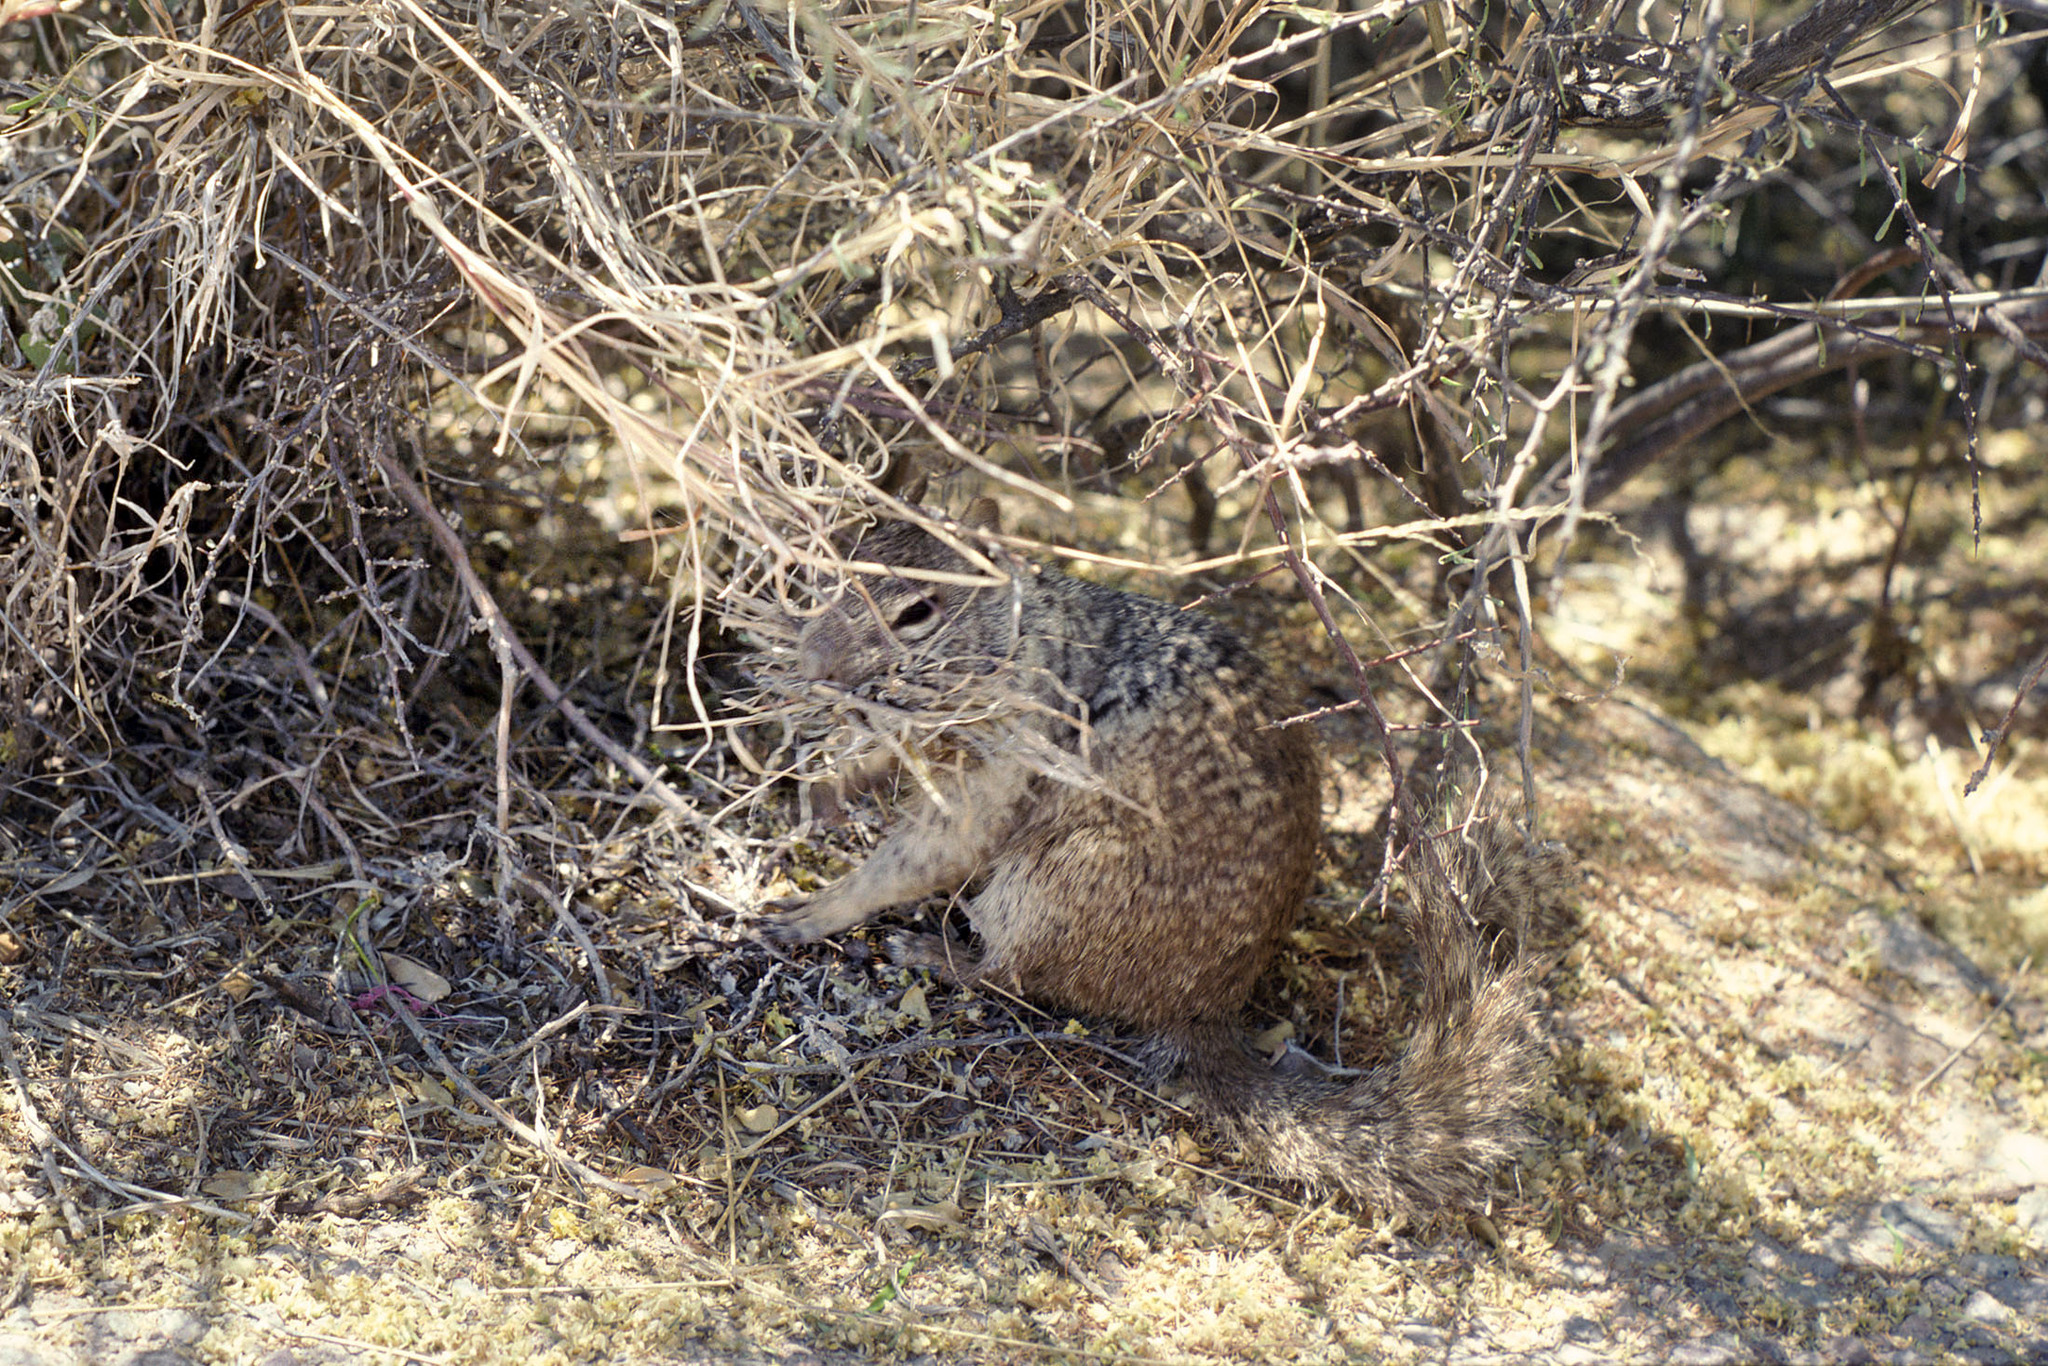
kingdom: Animalia
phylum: Chordata
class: Mammalia
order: Rodentia
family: Sciuridae
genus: Otospermophilus
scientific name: Otospermophilus variegatus
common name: Rock squirrel
